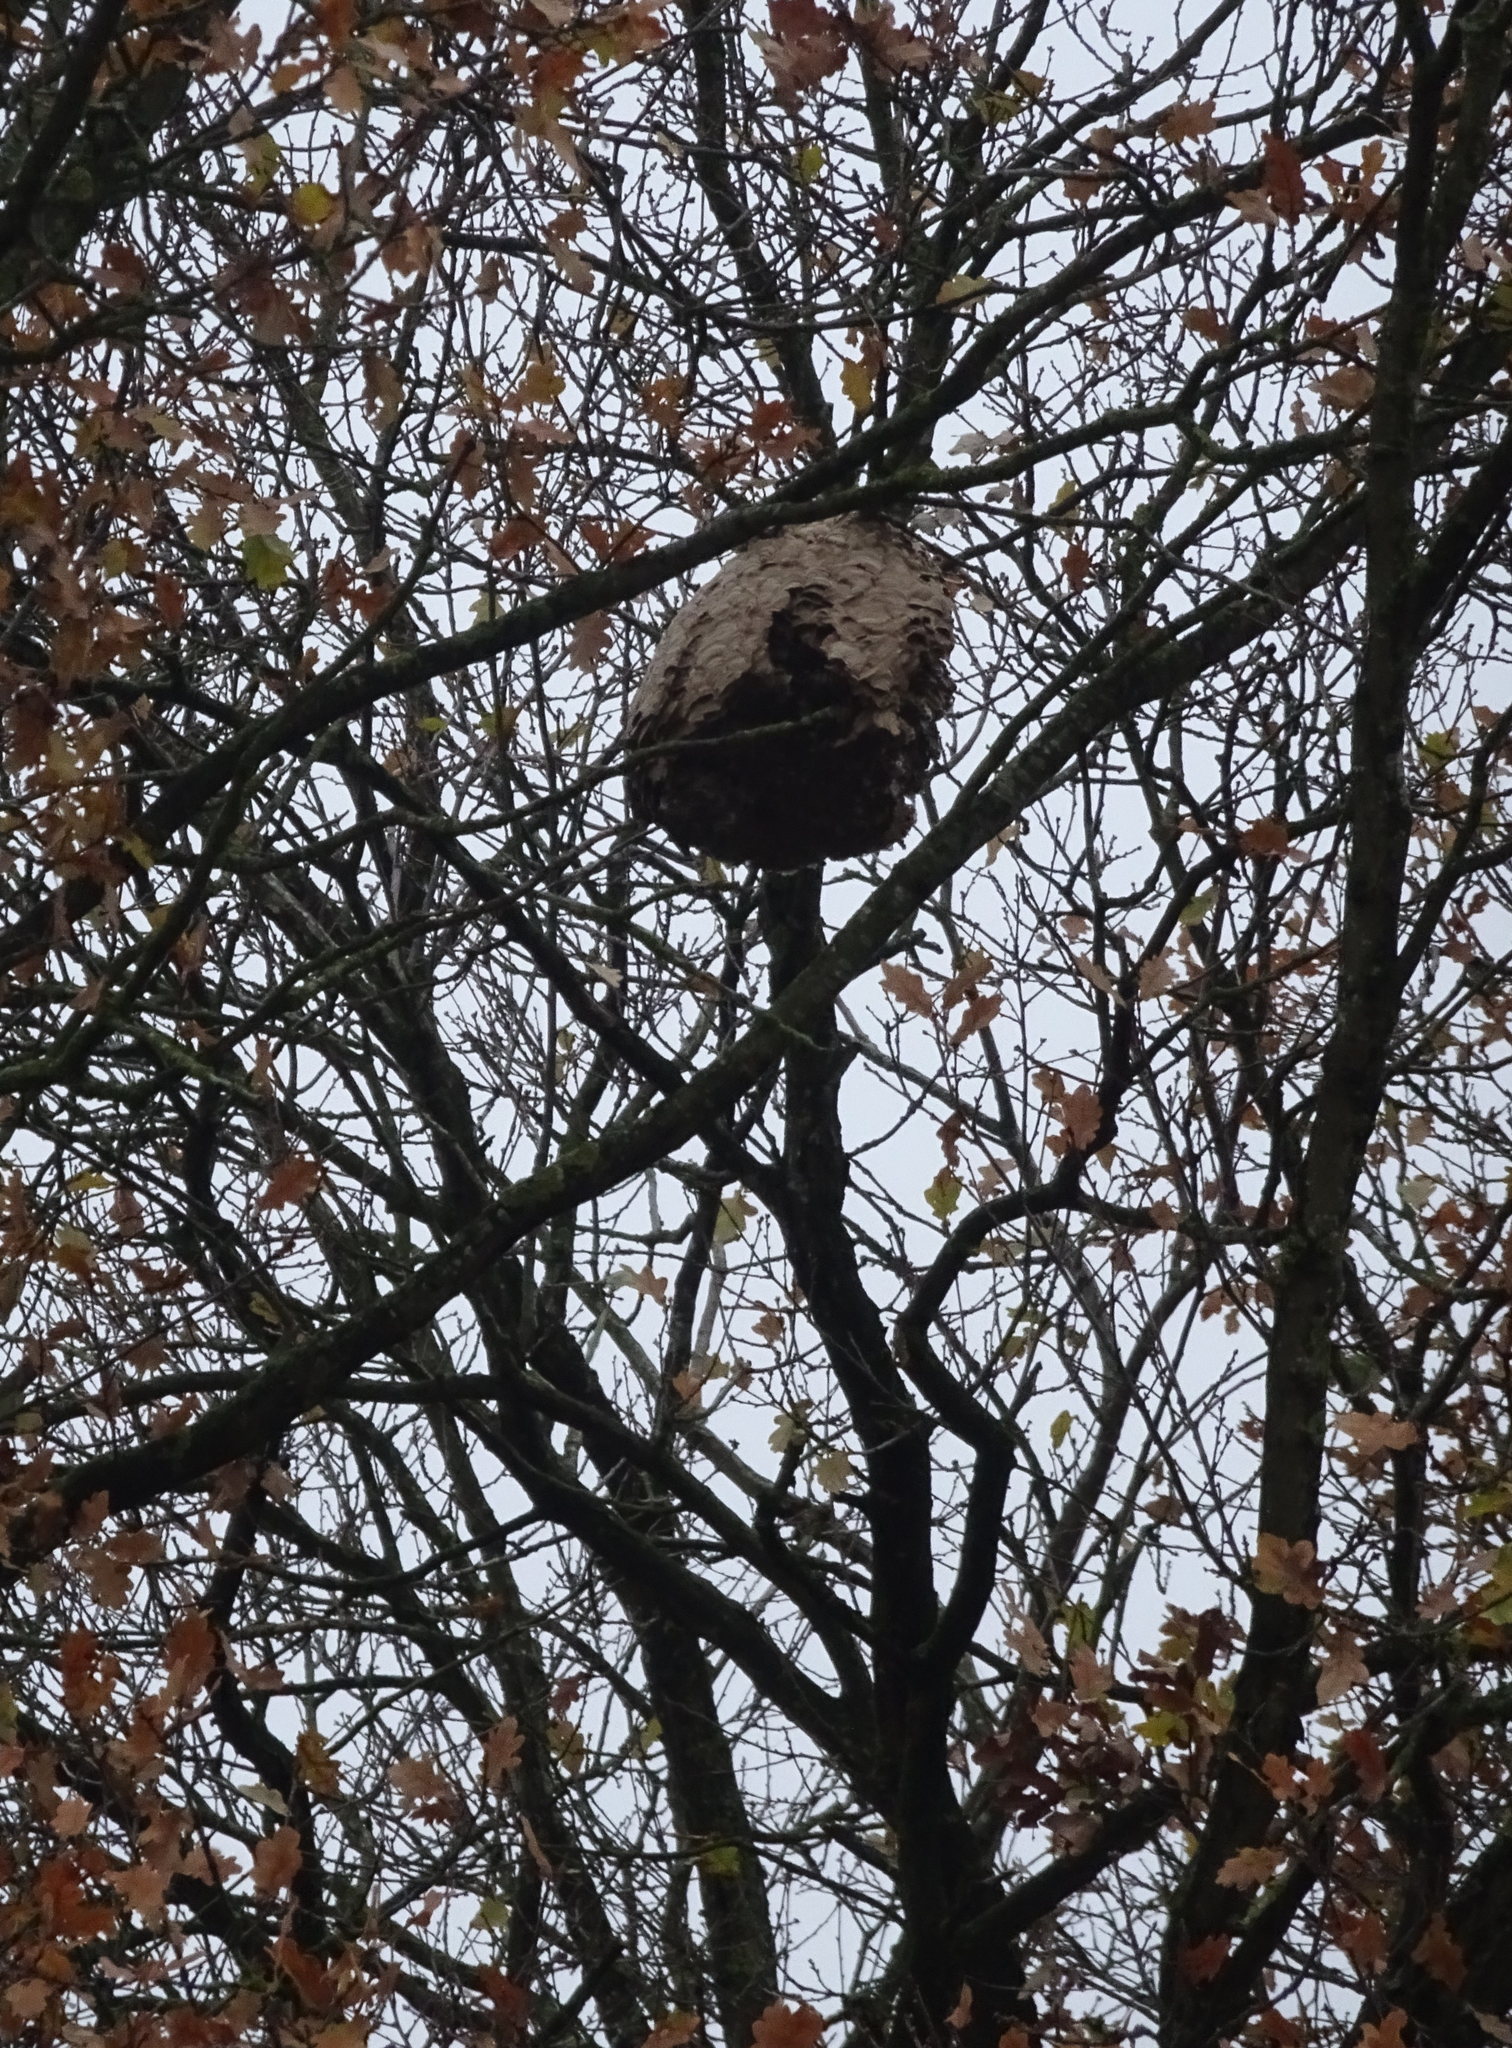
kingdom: Animalia
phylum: Arthropoda
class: Insecta
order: Hymenoptera
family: Vespidae
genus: Vespa
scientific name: Vespa velutina
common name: Asian hornet
